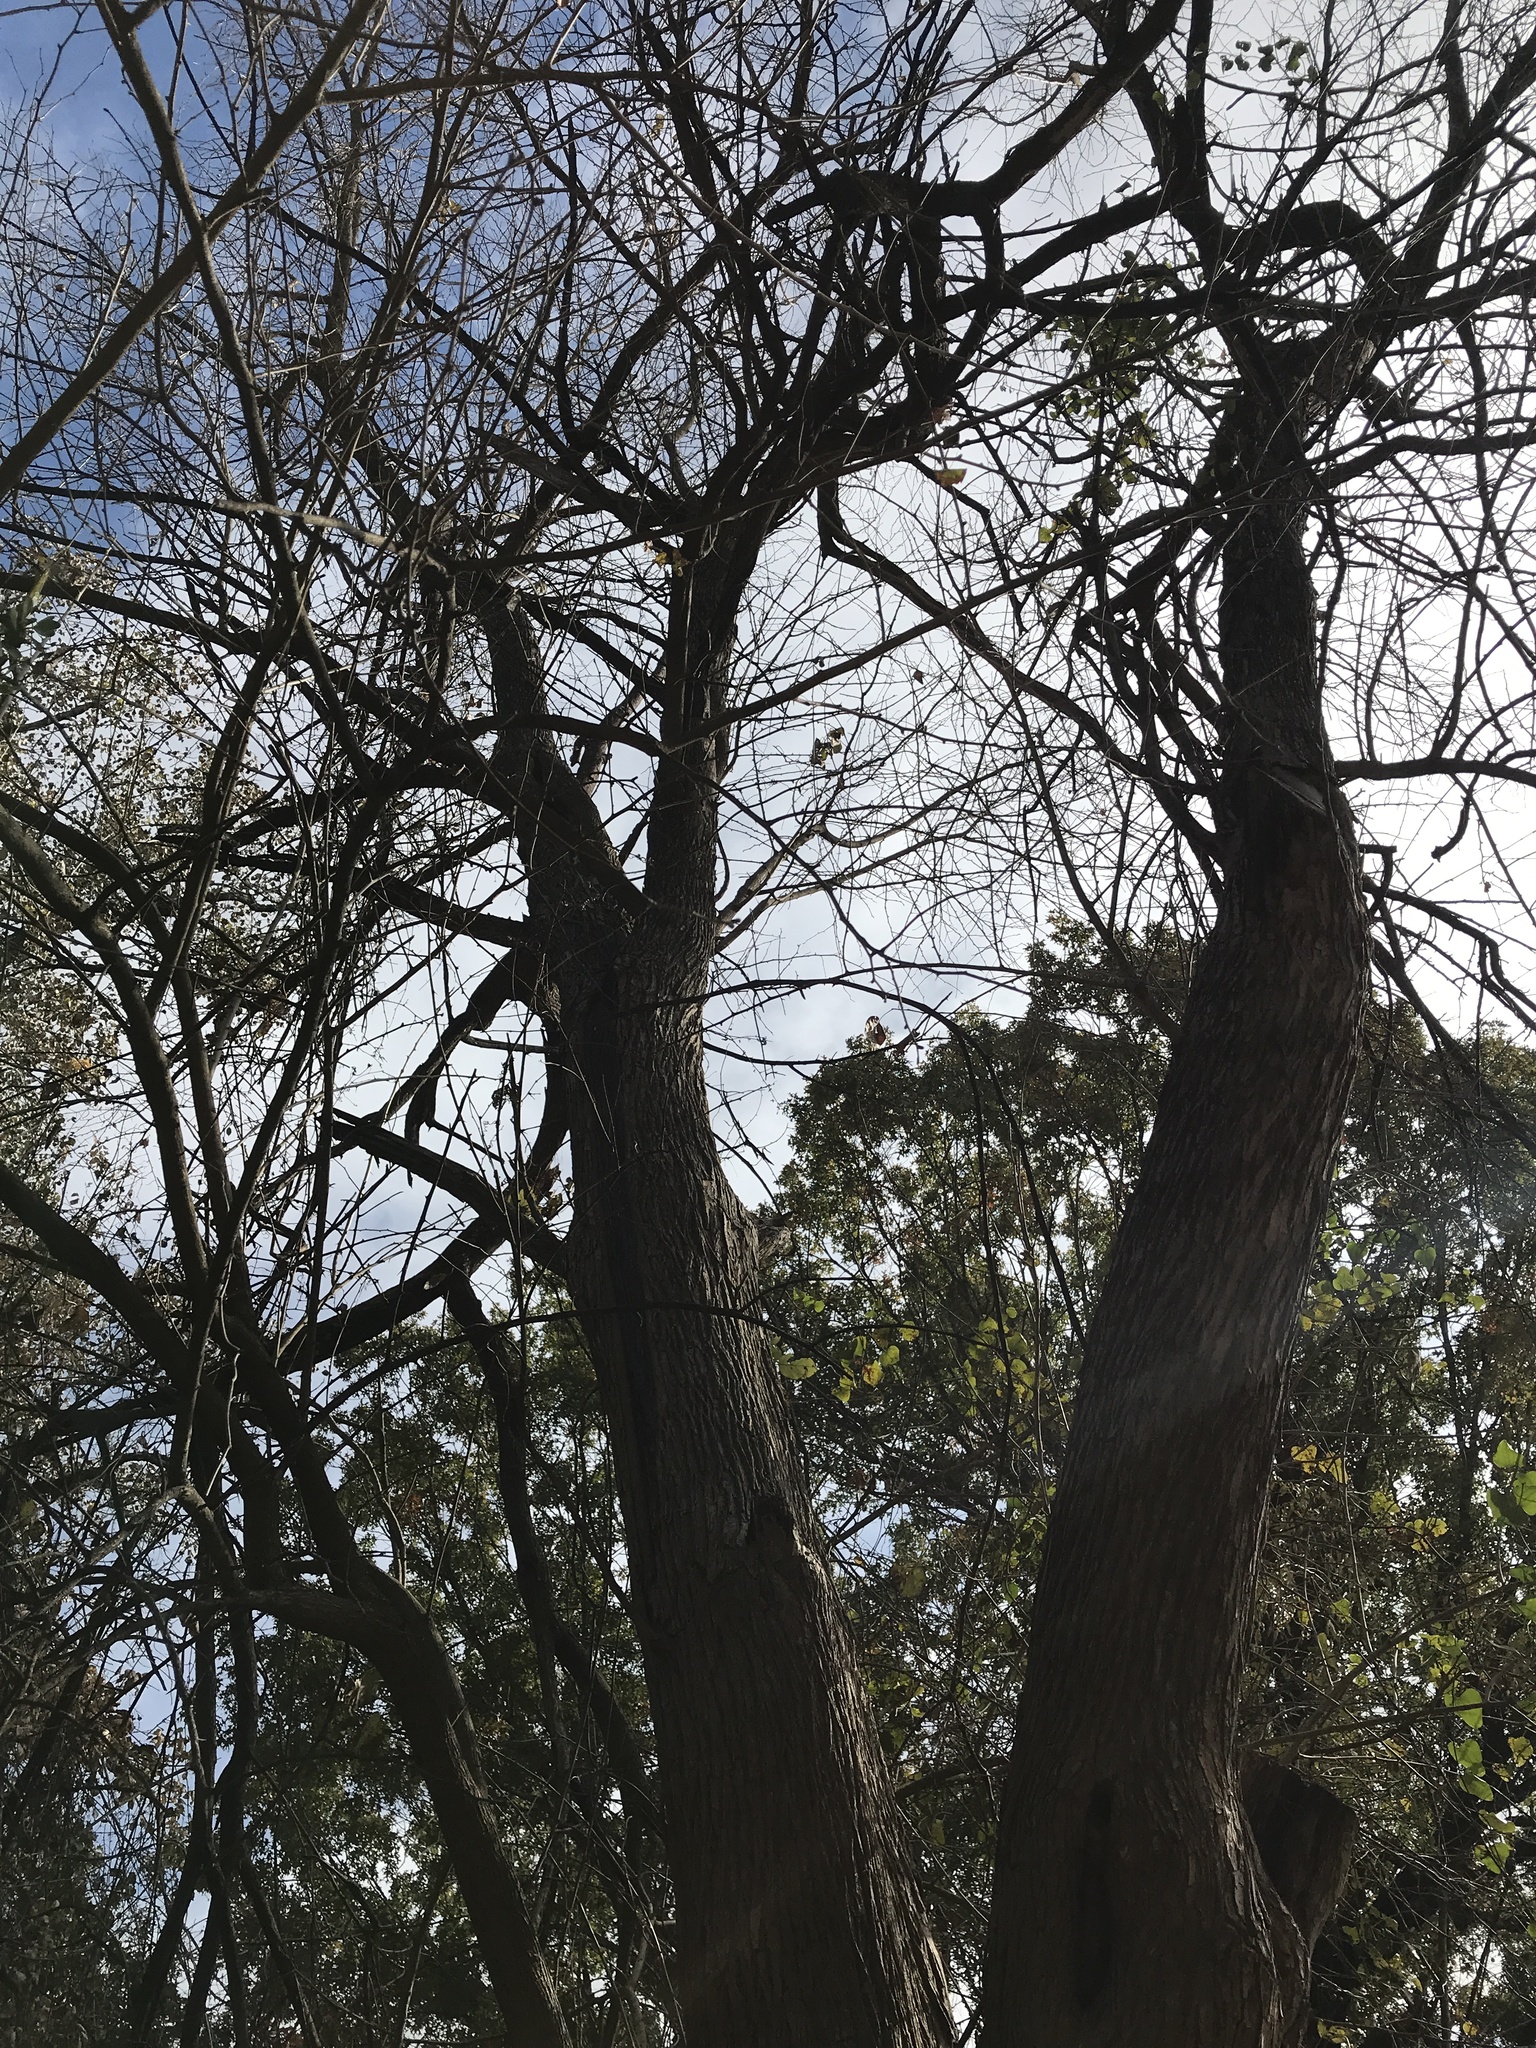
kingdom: Plantae
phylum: Tracheophyta
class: Magnoliopsida
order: Rosales
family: Moraceae
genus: Maclura
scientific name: Maclura pomifera
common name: Osage-orange
